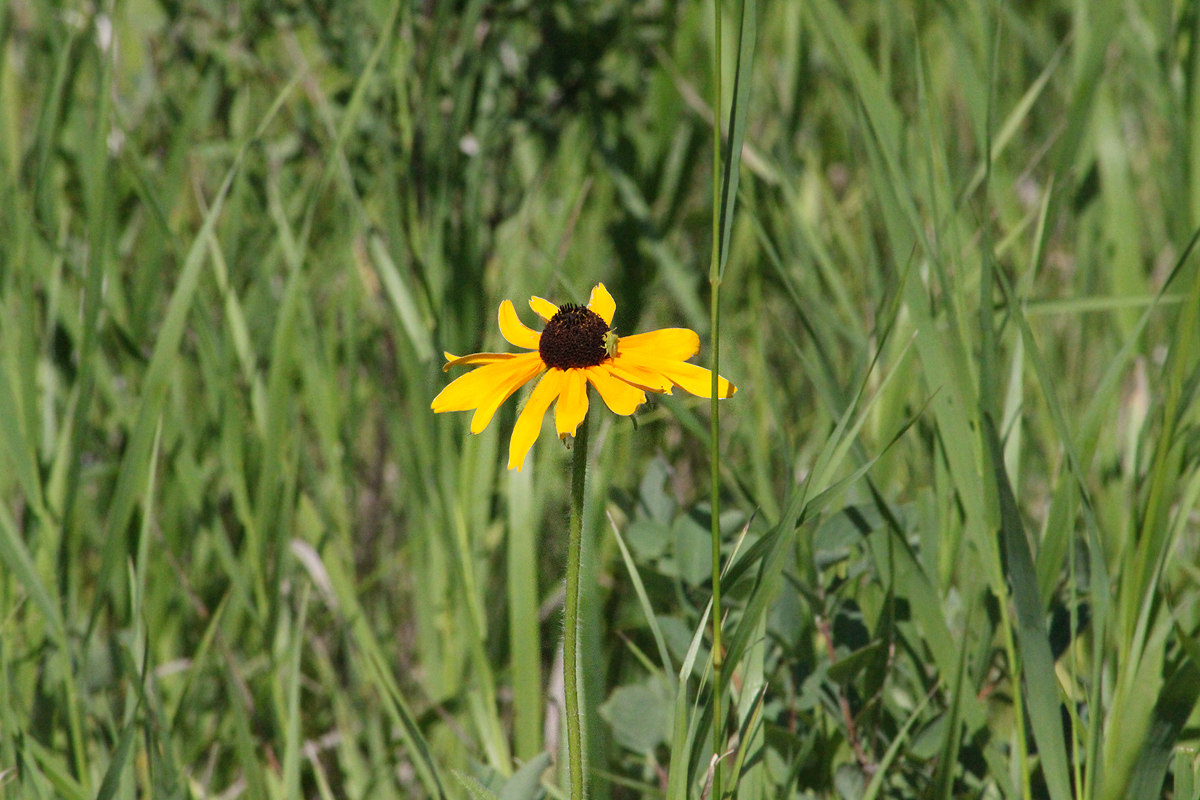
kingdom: Plantae
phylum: Tracheophyta
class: Magnoliopsida
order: Asterales
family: Asteraceae
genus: Rudbeckia
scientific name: Rudbeckia hirta
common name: Black-eyed-susan
